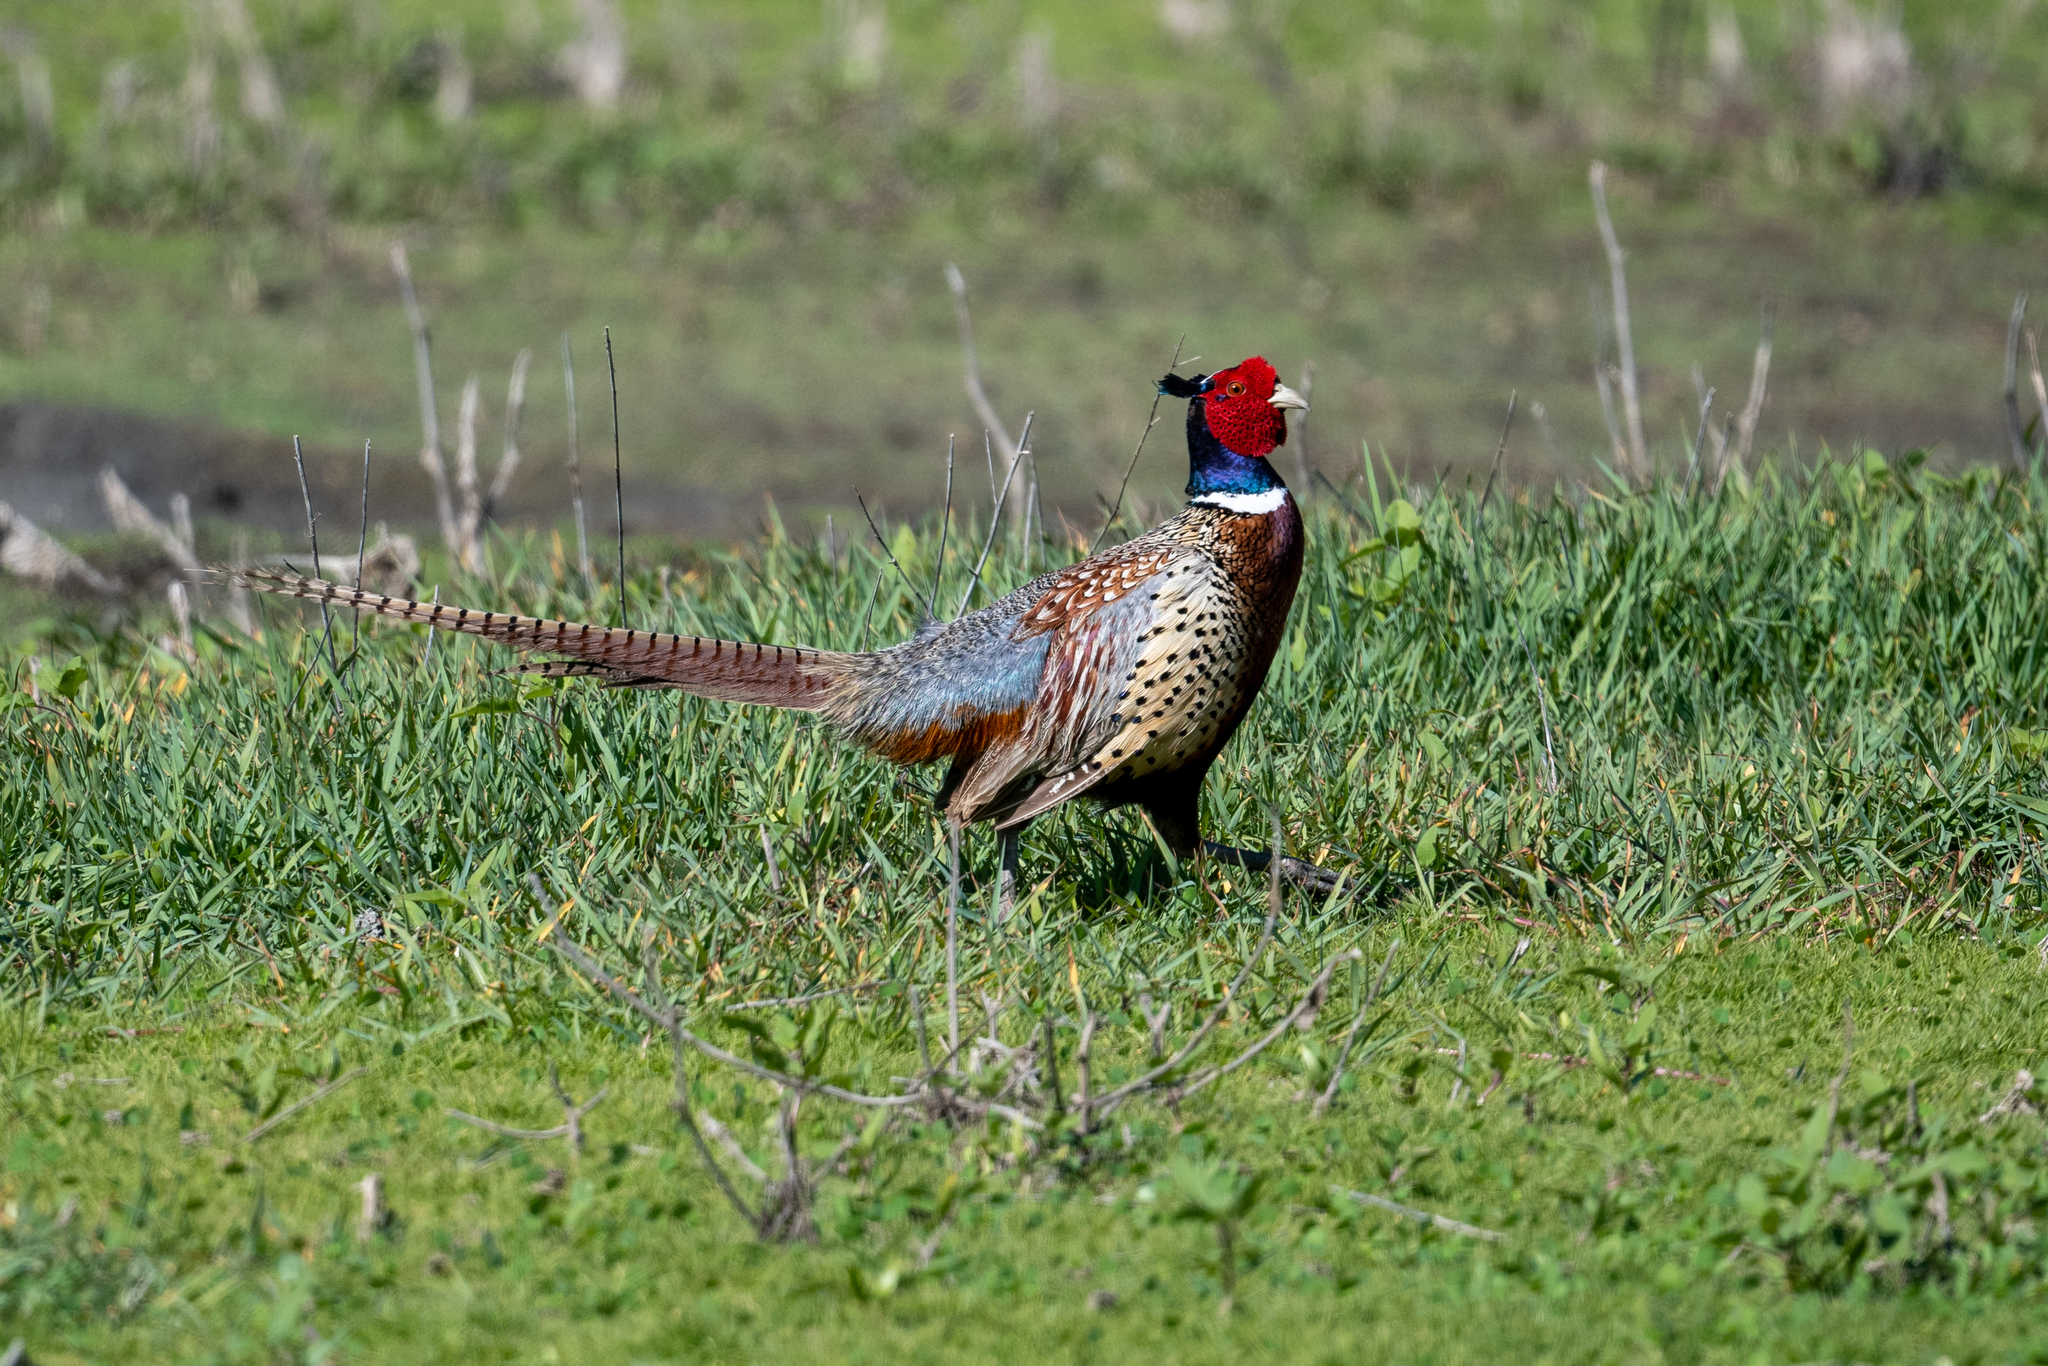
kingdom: Animalia
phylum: Chordata
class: Aves
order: Galliformes
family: Phasianidae
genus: Phasianus
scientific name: Phasianus colchicus
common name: Common pheasant
